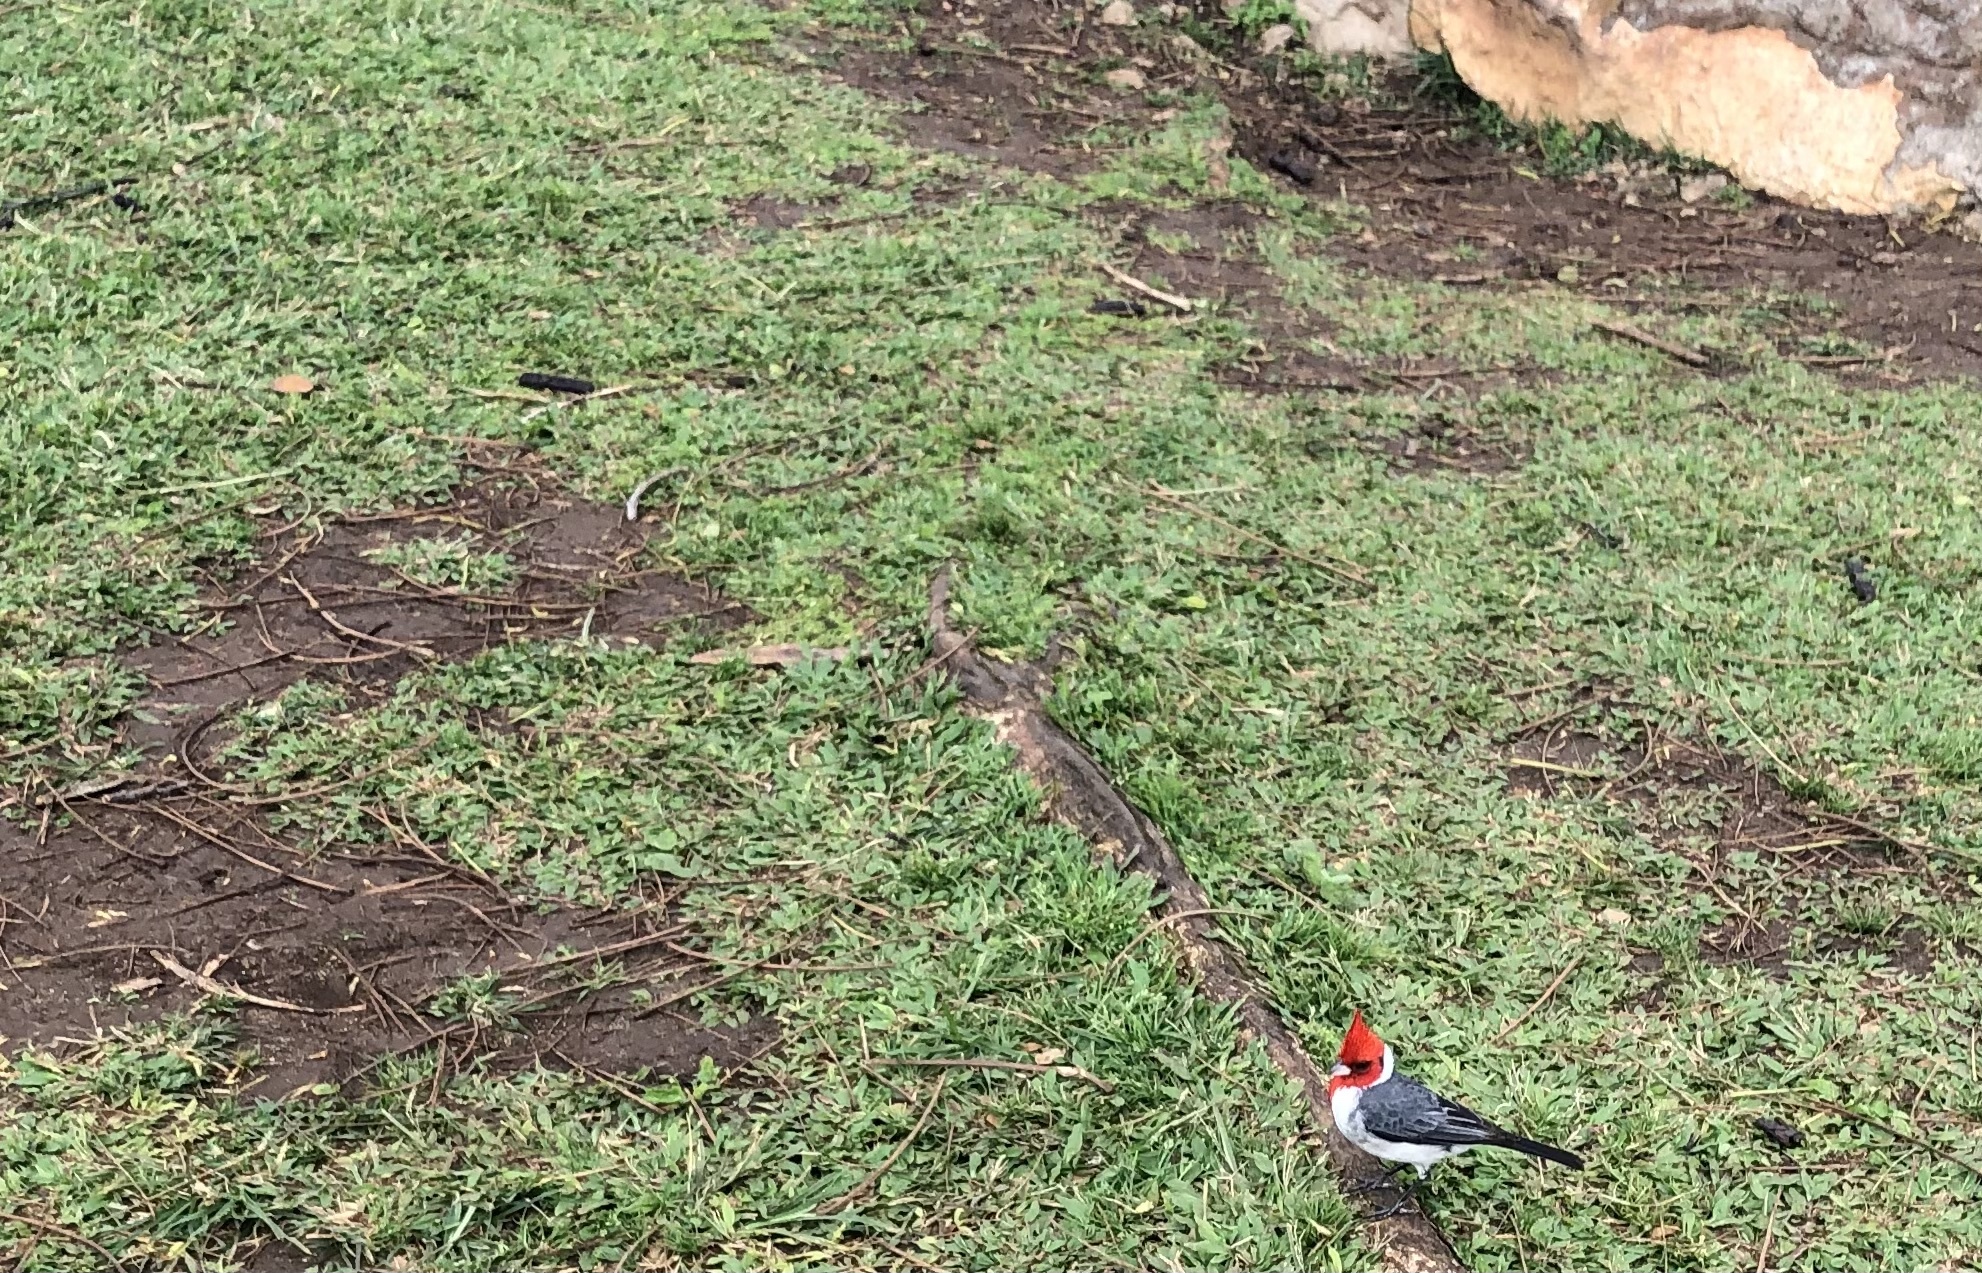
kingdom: Animalia
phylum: Chordata
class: Aves
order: Passeriformes
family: Thraupidae
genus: Paroaria
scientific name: Paroaria coronata
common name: Red-crested cardinal
